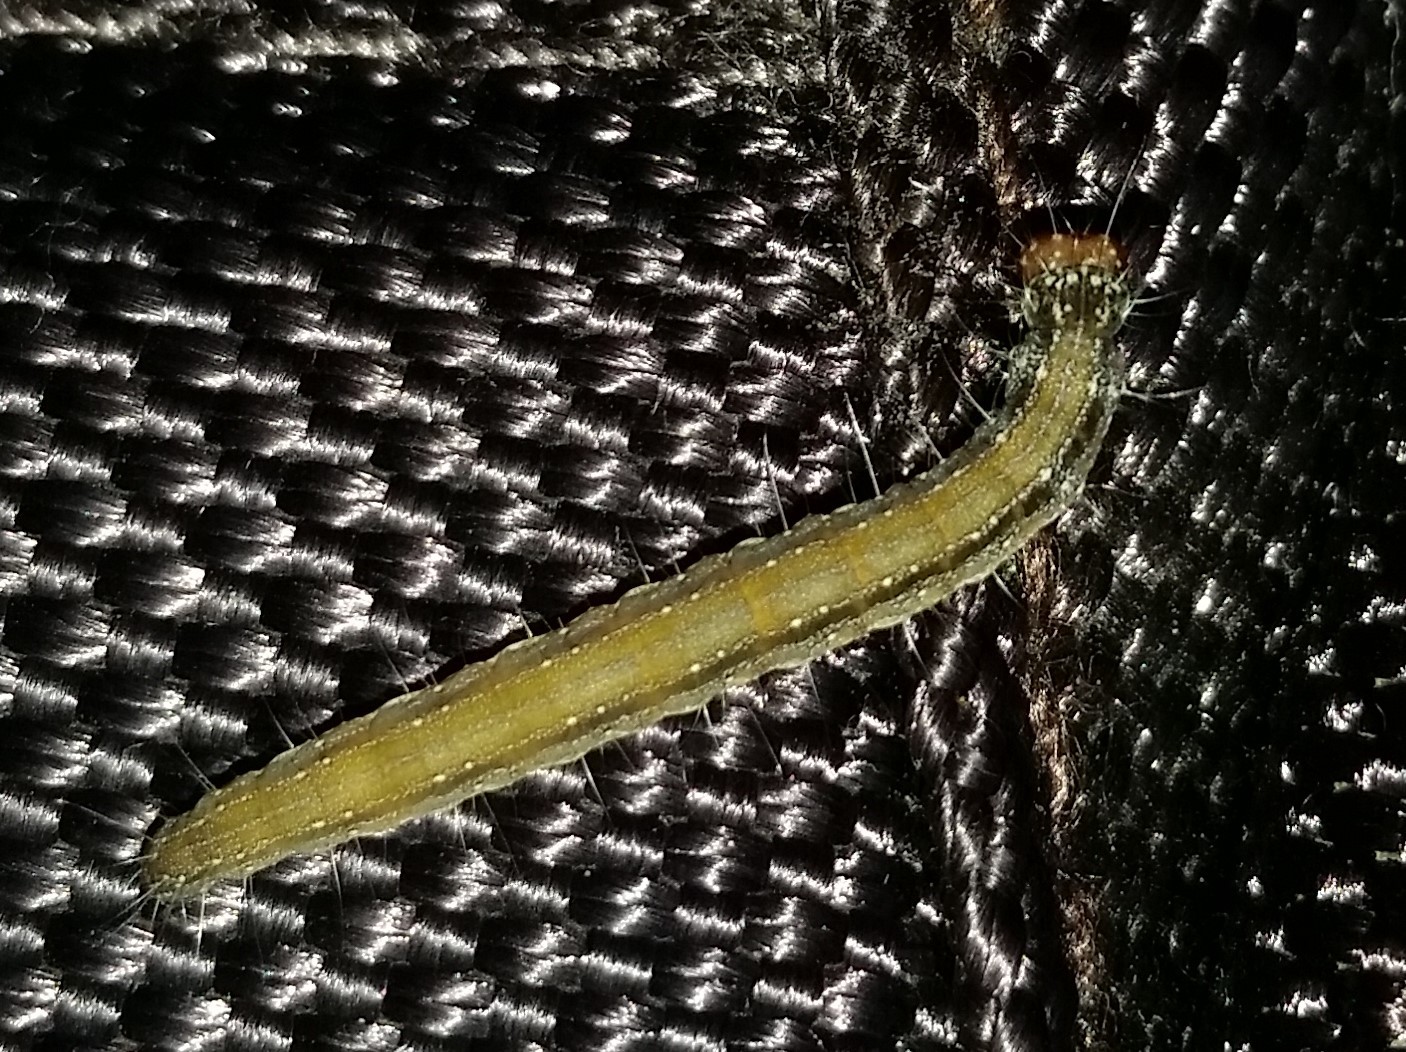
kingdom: Animalia
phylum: Arthropoda
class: Insecta
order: Lepidoptera
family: Attevidae
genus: Atteva
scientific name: Atteva punctella
